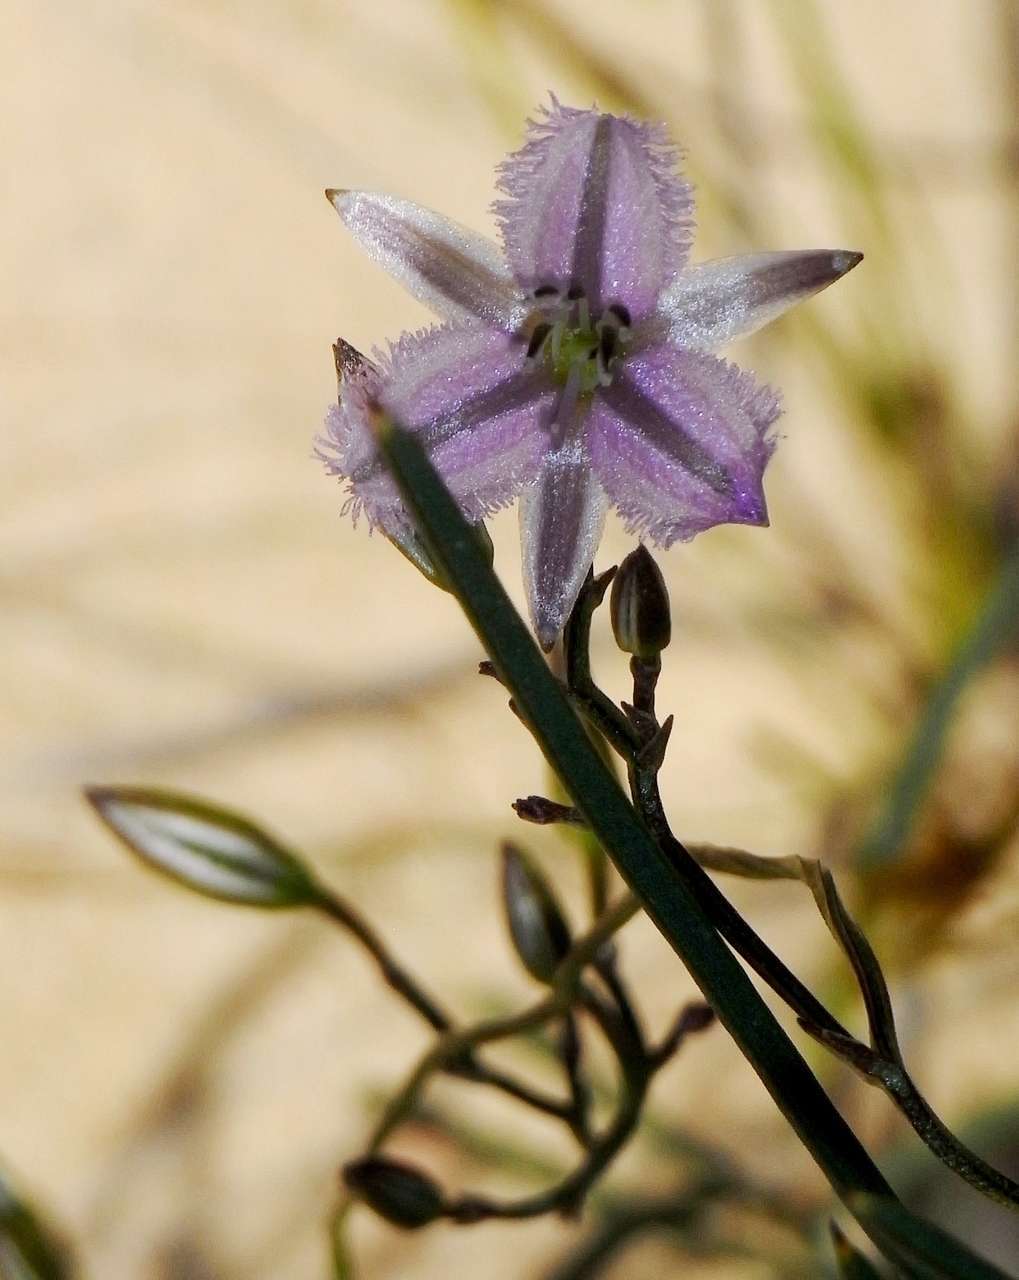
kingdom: Plantae
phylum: Tracheophyta
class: Liliopsida
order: Asparagales
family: Asparagaceae
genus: Thysanotus
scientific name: Thysanotus patersonii
